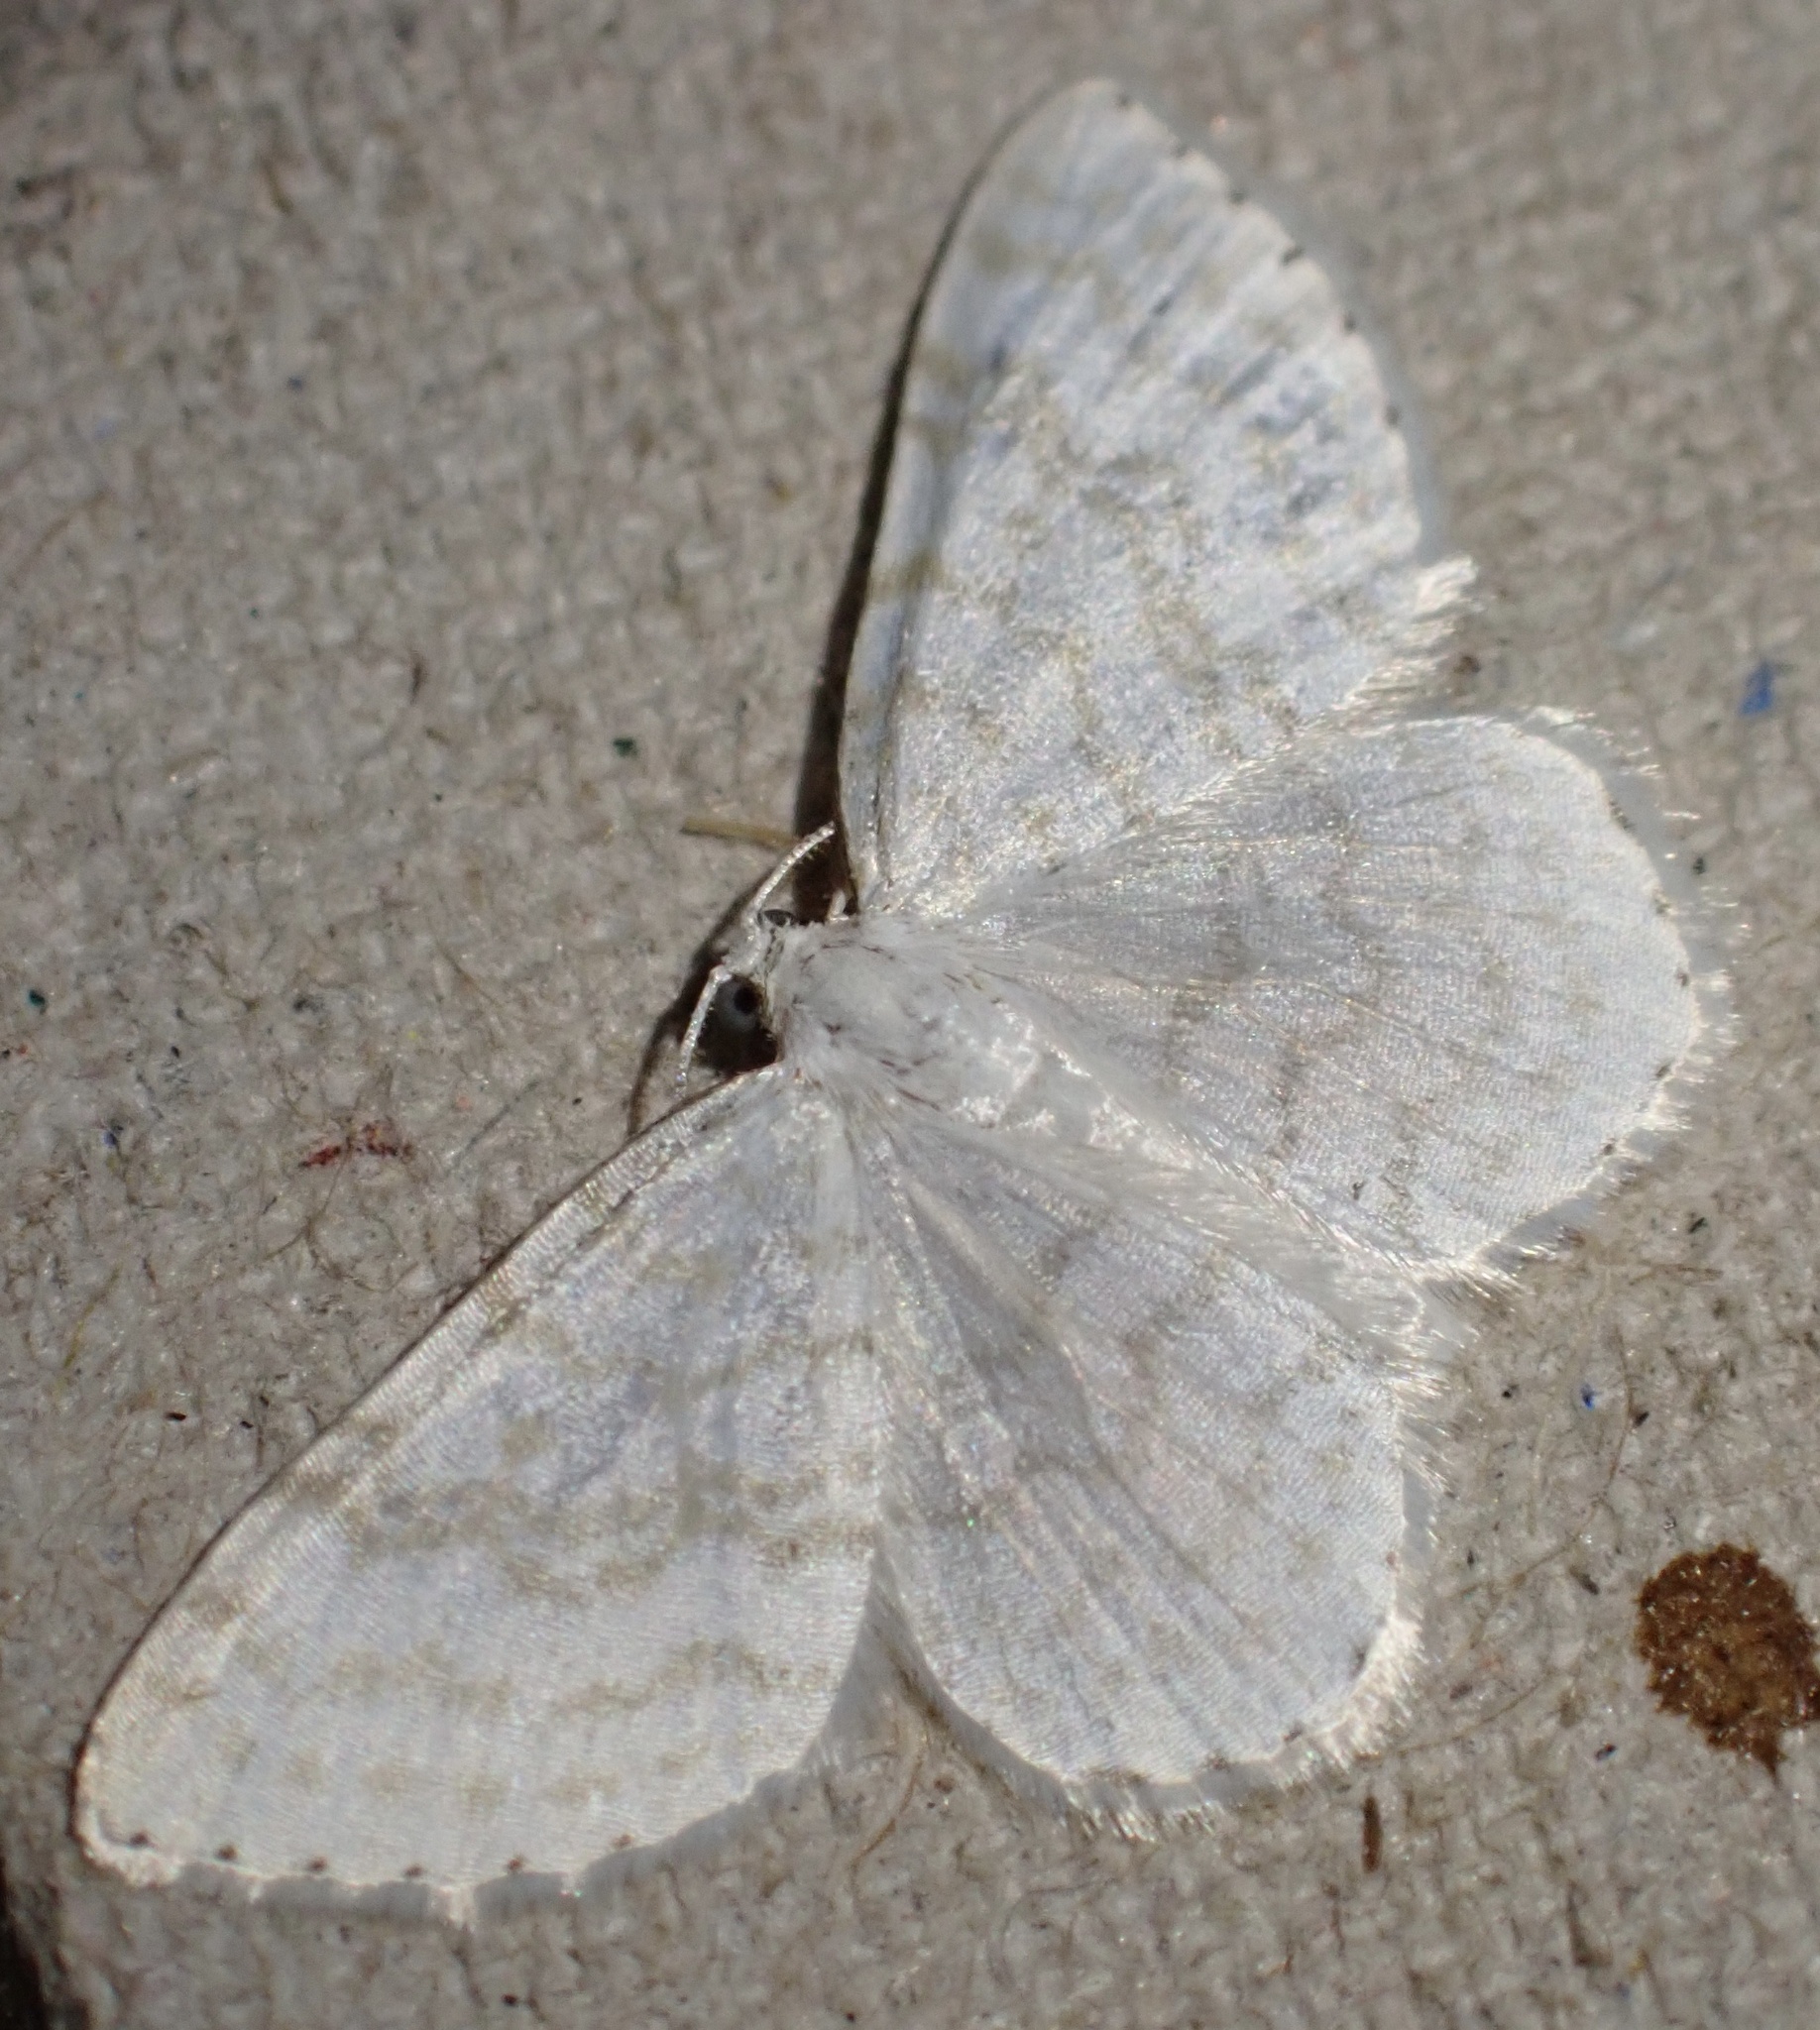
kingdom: Animalia
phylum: Arthropoda
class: Insecta
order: Lepidoptera
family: Geometridae
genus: Asthena
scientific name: Asthena albulata
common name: Small white wave
